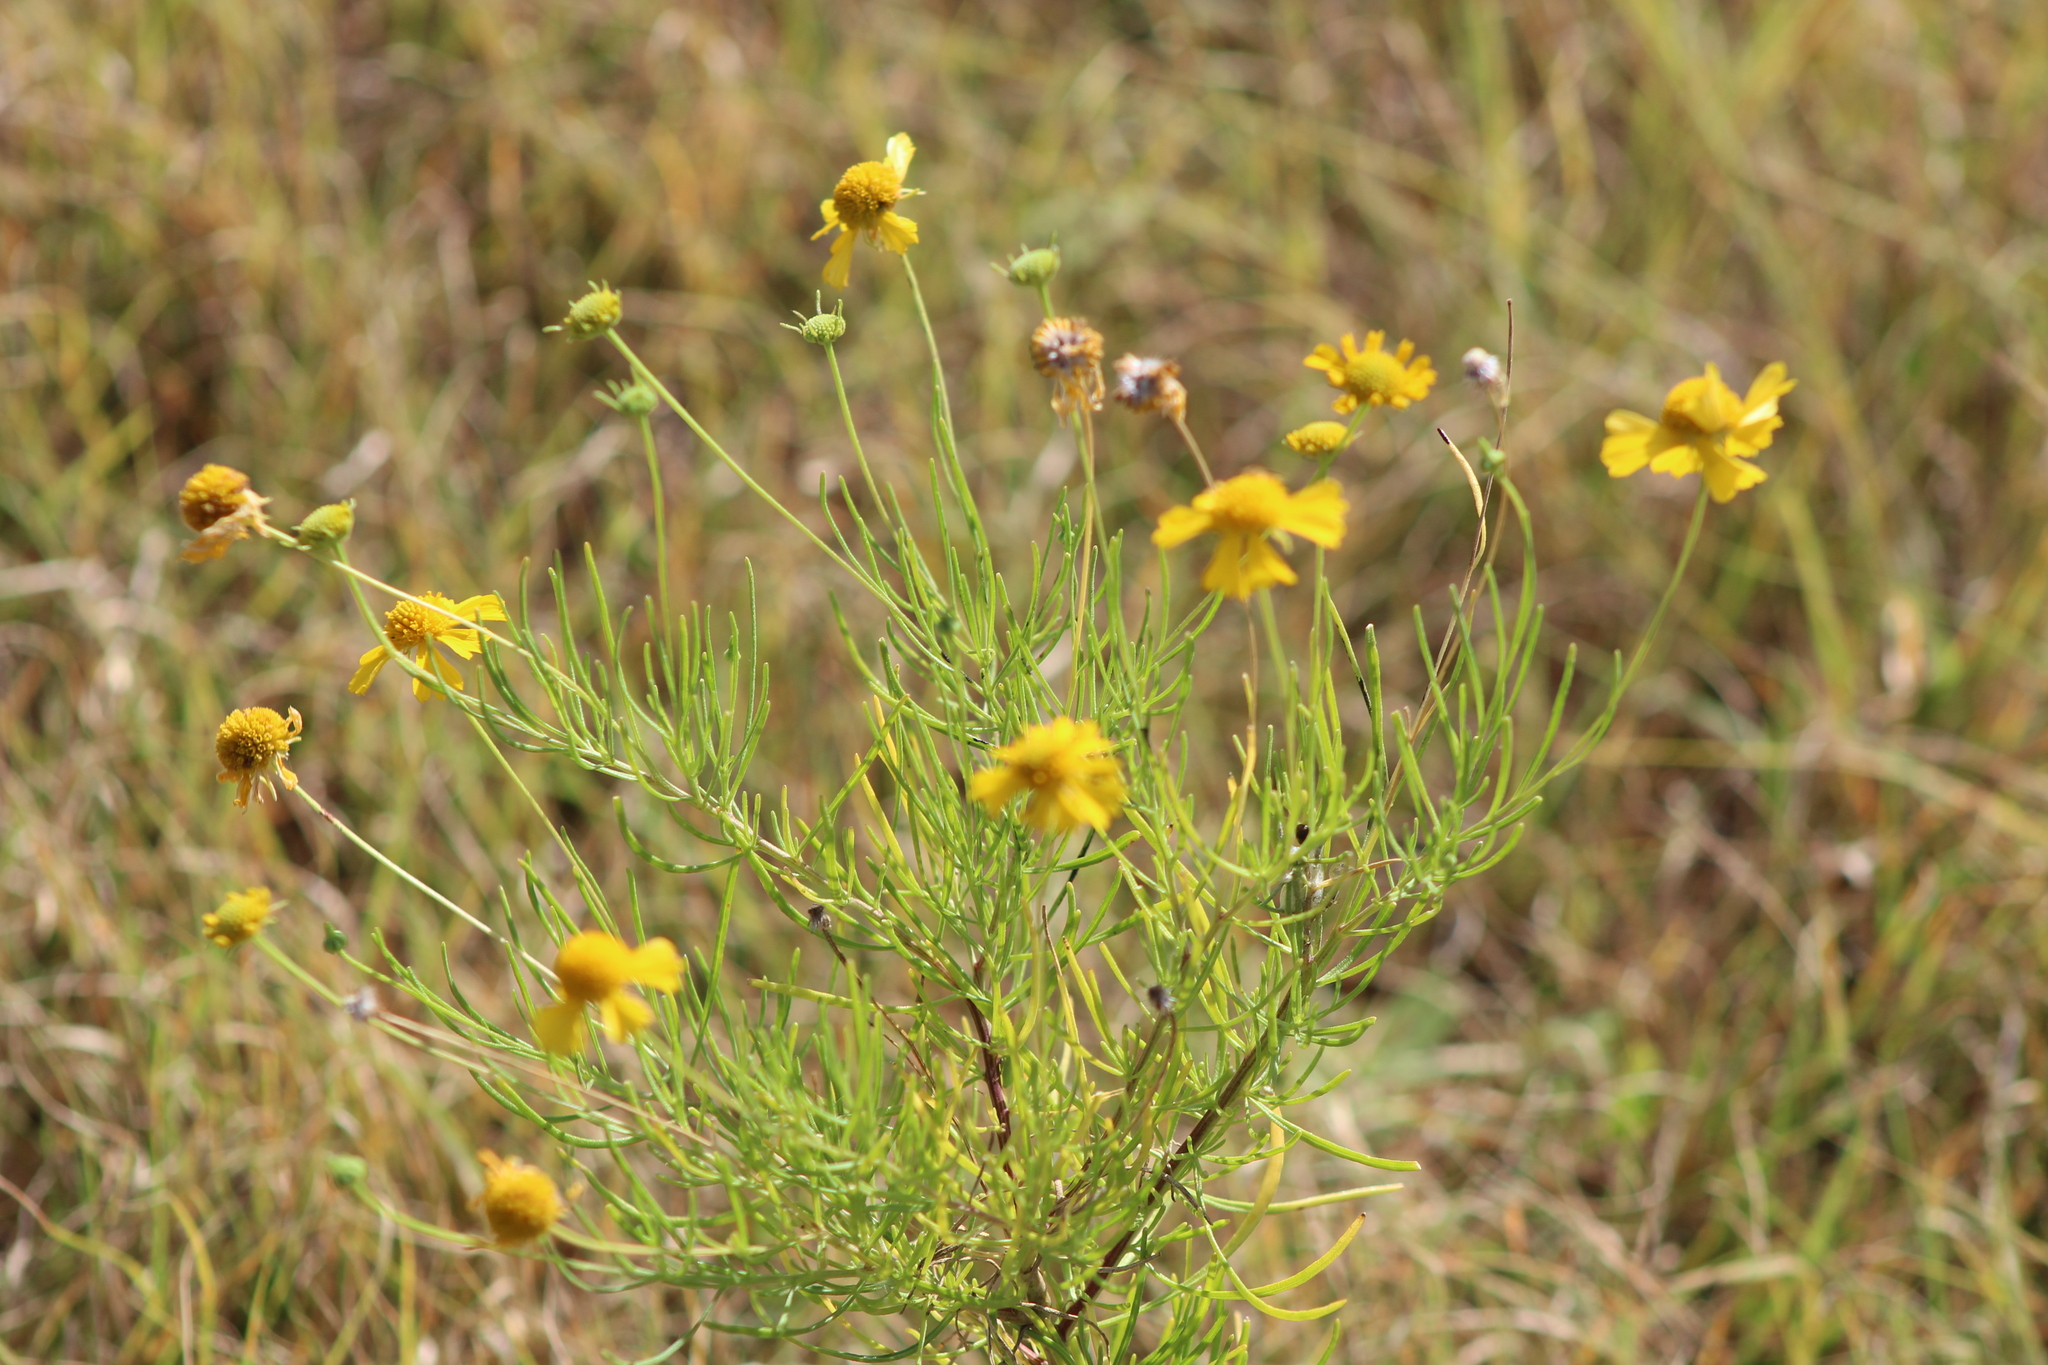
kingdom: Plantae
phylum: Tracheophyta
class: Magnoliopsida
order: Asterales
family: Asteraceae
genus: Helenium
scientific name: Helenium amarum
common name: Bitter sneezeweed
